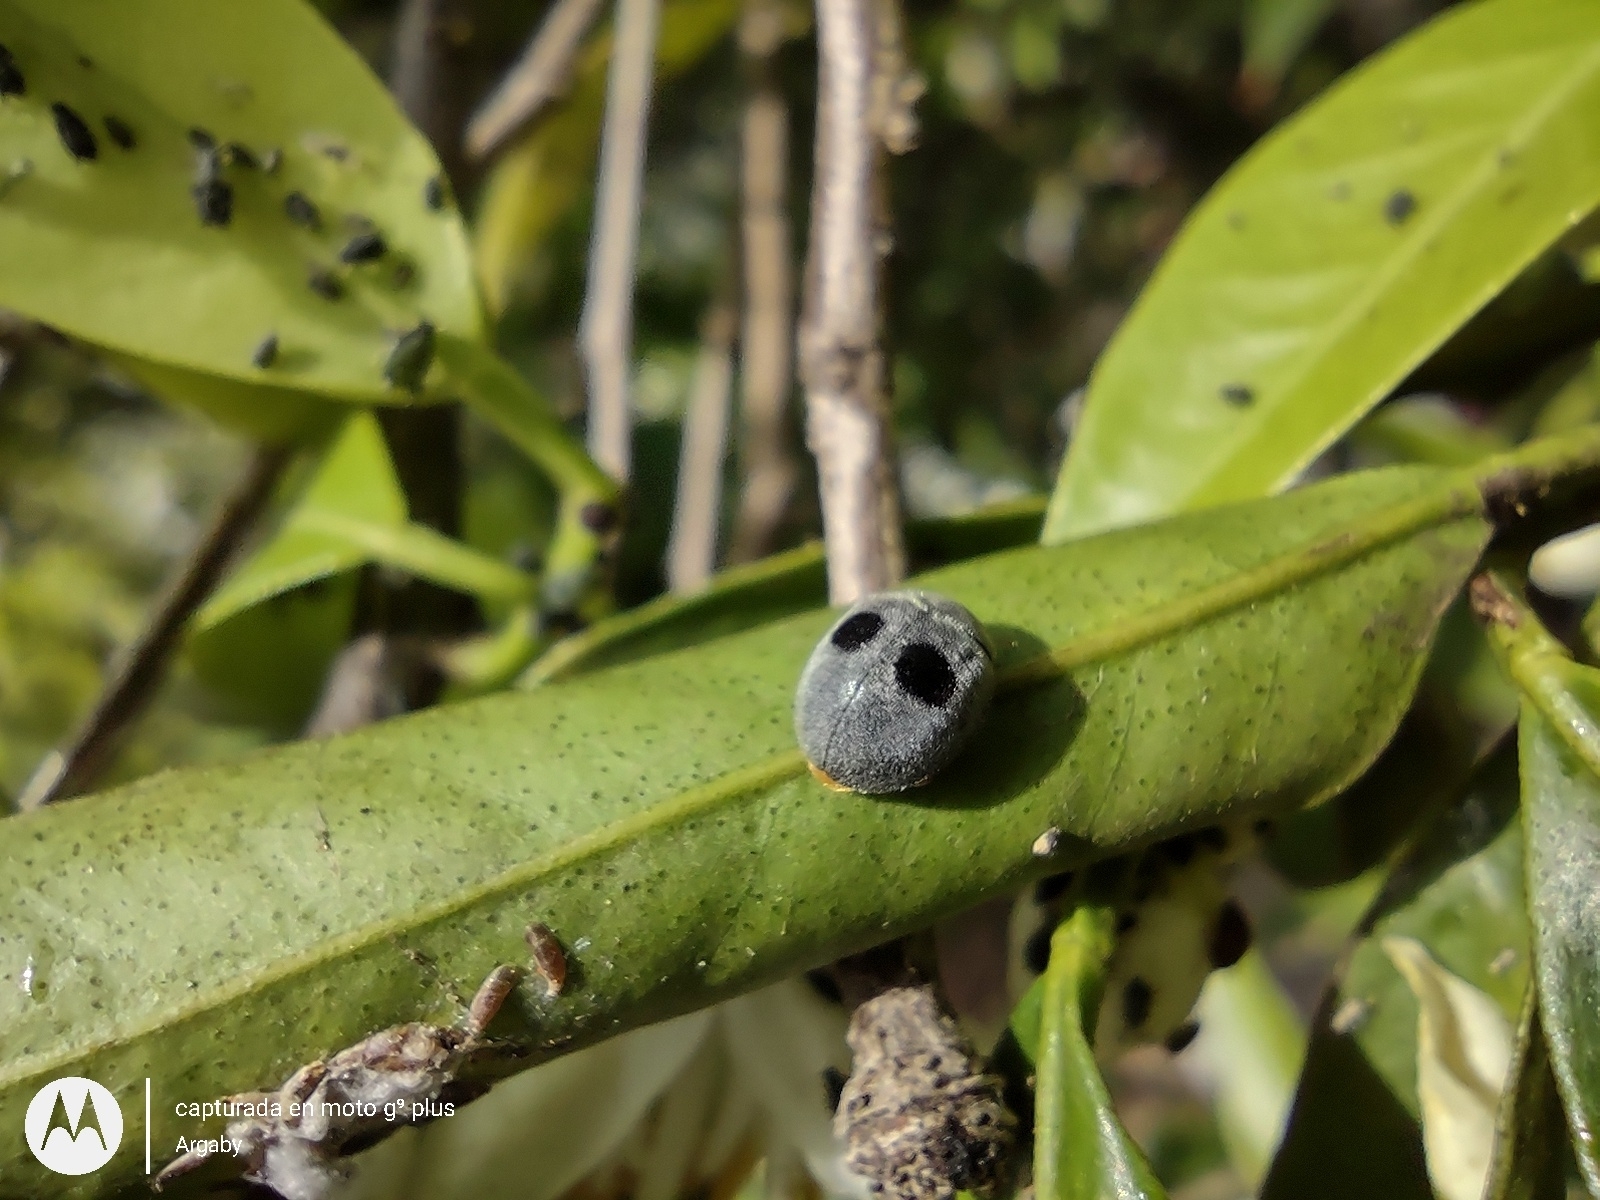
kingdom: Animalia
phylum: Arthropoda
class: Insecta
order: Coleoptera
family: Coccinellidae
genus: Azya
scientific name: Azya luteipes
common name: Ladybird beetle
